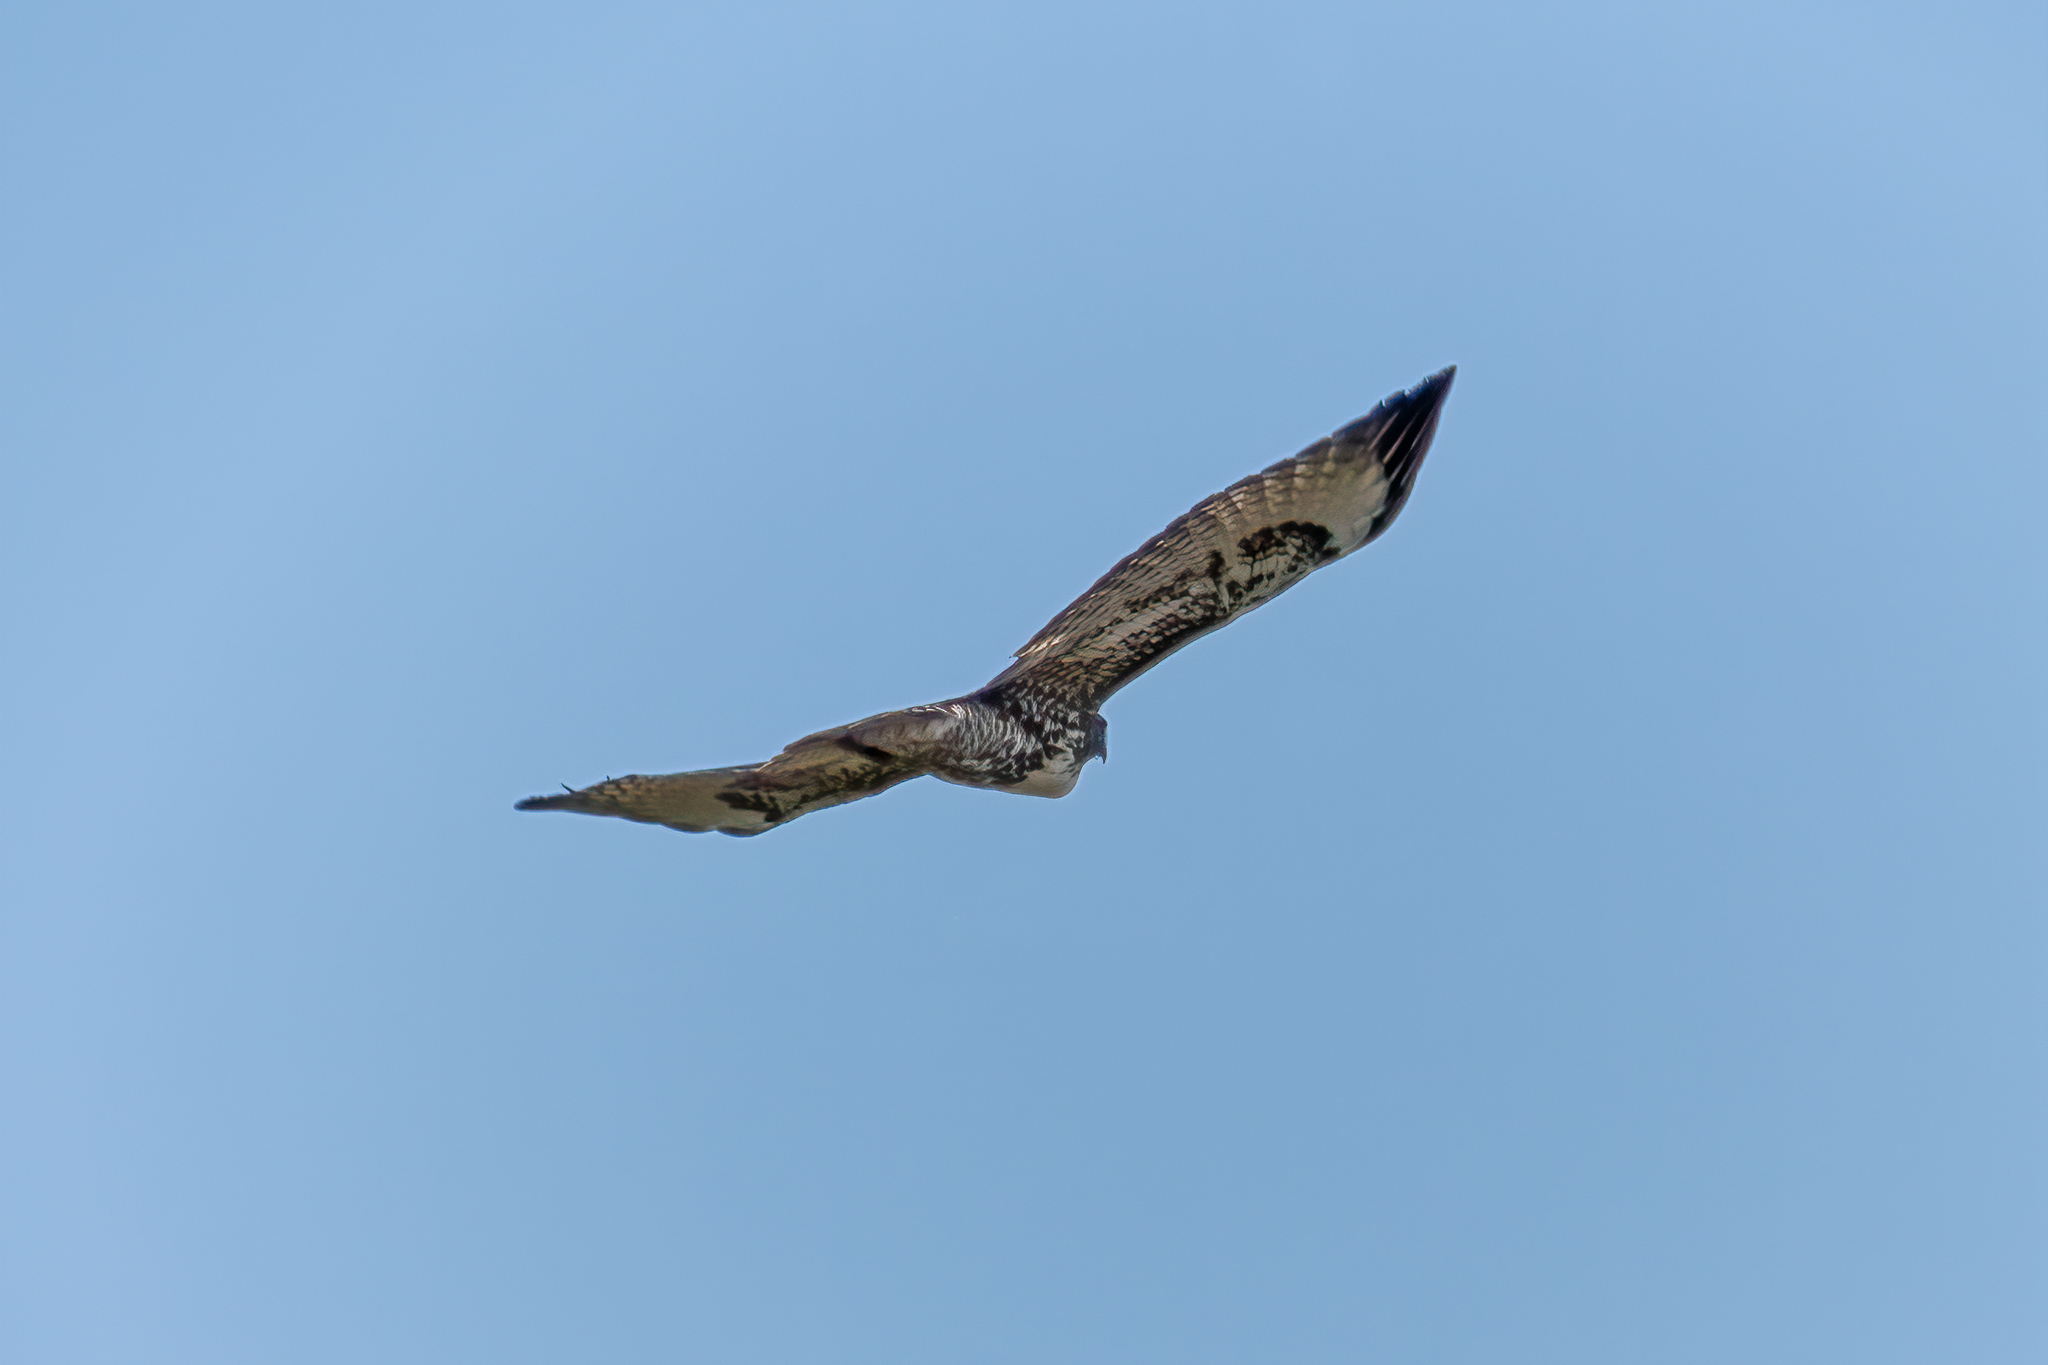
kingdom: Animalia
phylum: Chordata
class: Aves
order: Accipitriformes
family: Accipitridae
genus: Buteo
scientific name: Buteo jamaicensis
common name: Red-tailed hawk
